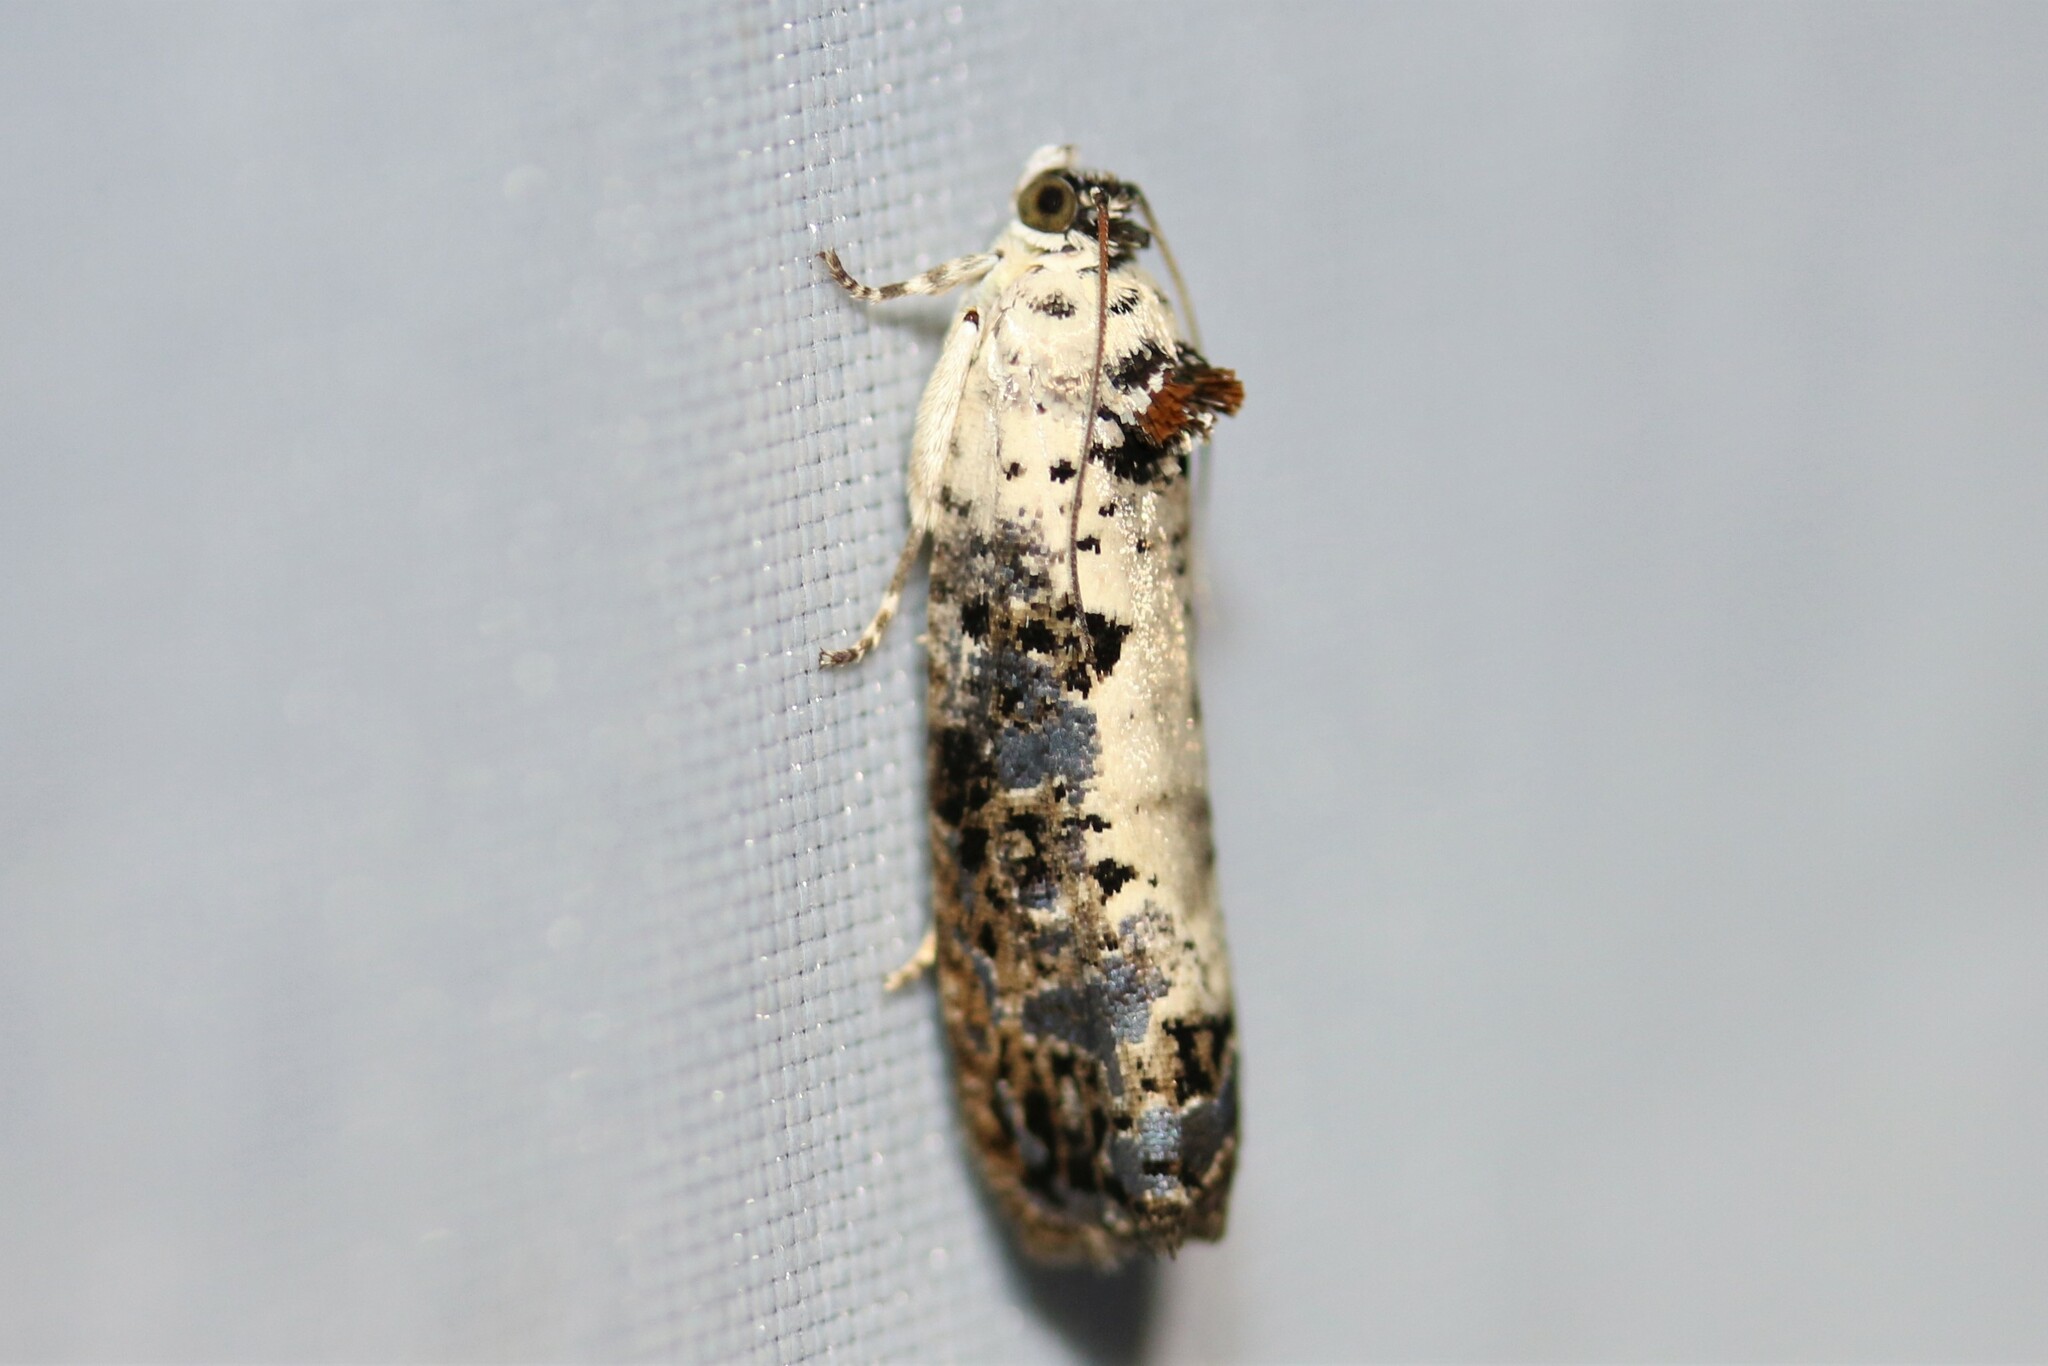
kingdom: Animalia
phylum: Arthropoda
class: Insecta
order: Lepidoptera
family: Tortricidae
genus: Hedya
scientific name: Hedya salicella
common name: Large tortricid moth
